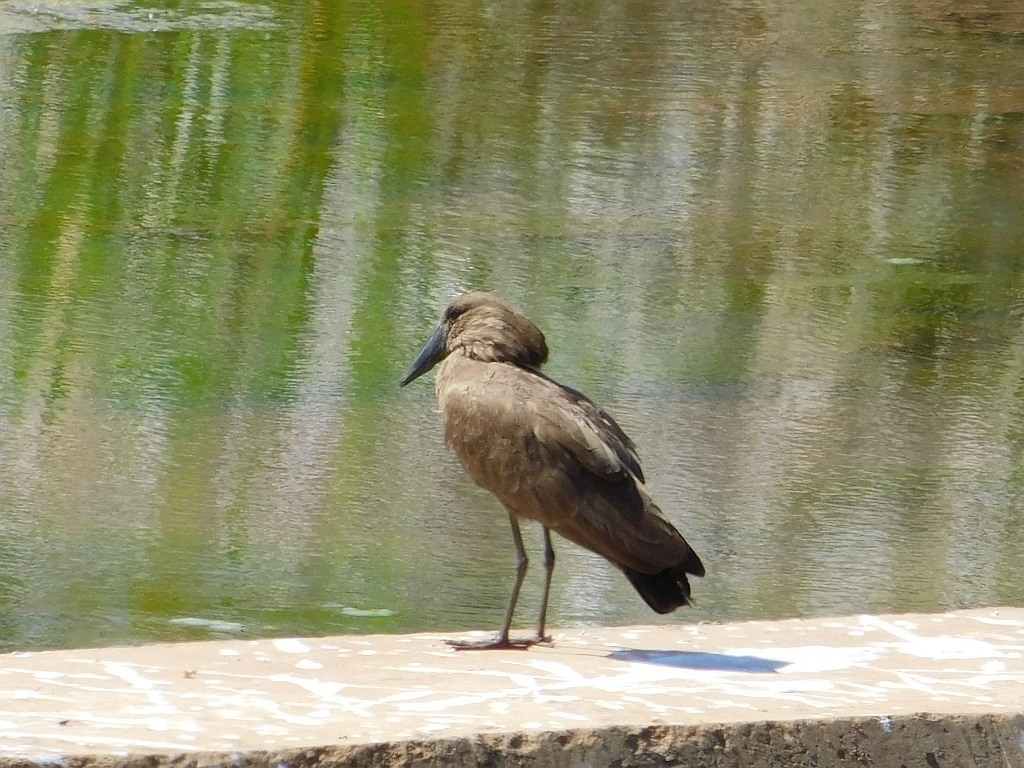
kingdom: Animalia
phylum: Chordata
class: Aves
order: Pelecaniformes
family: Scopidae
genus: Scopus
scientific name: Scopus umbretta
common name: Hamerkop
